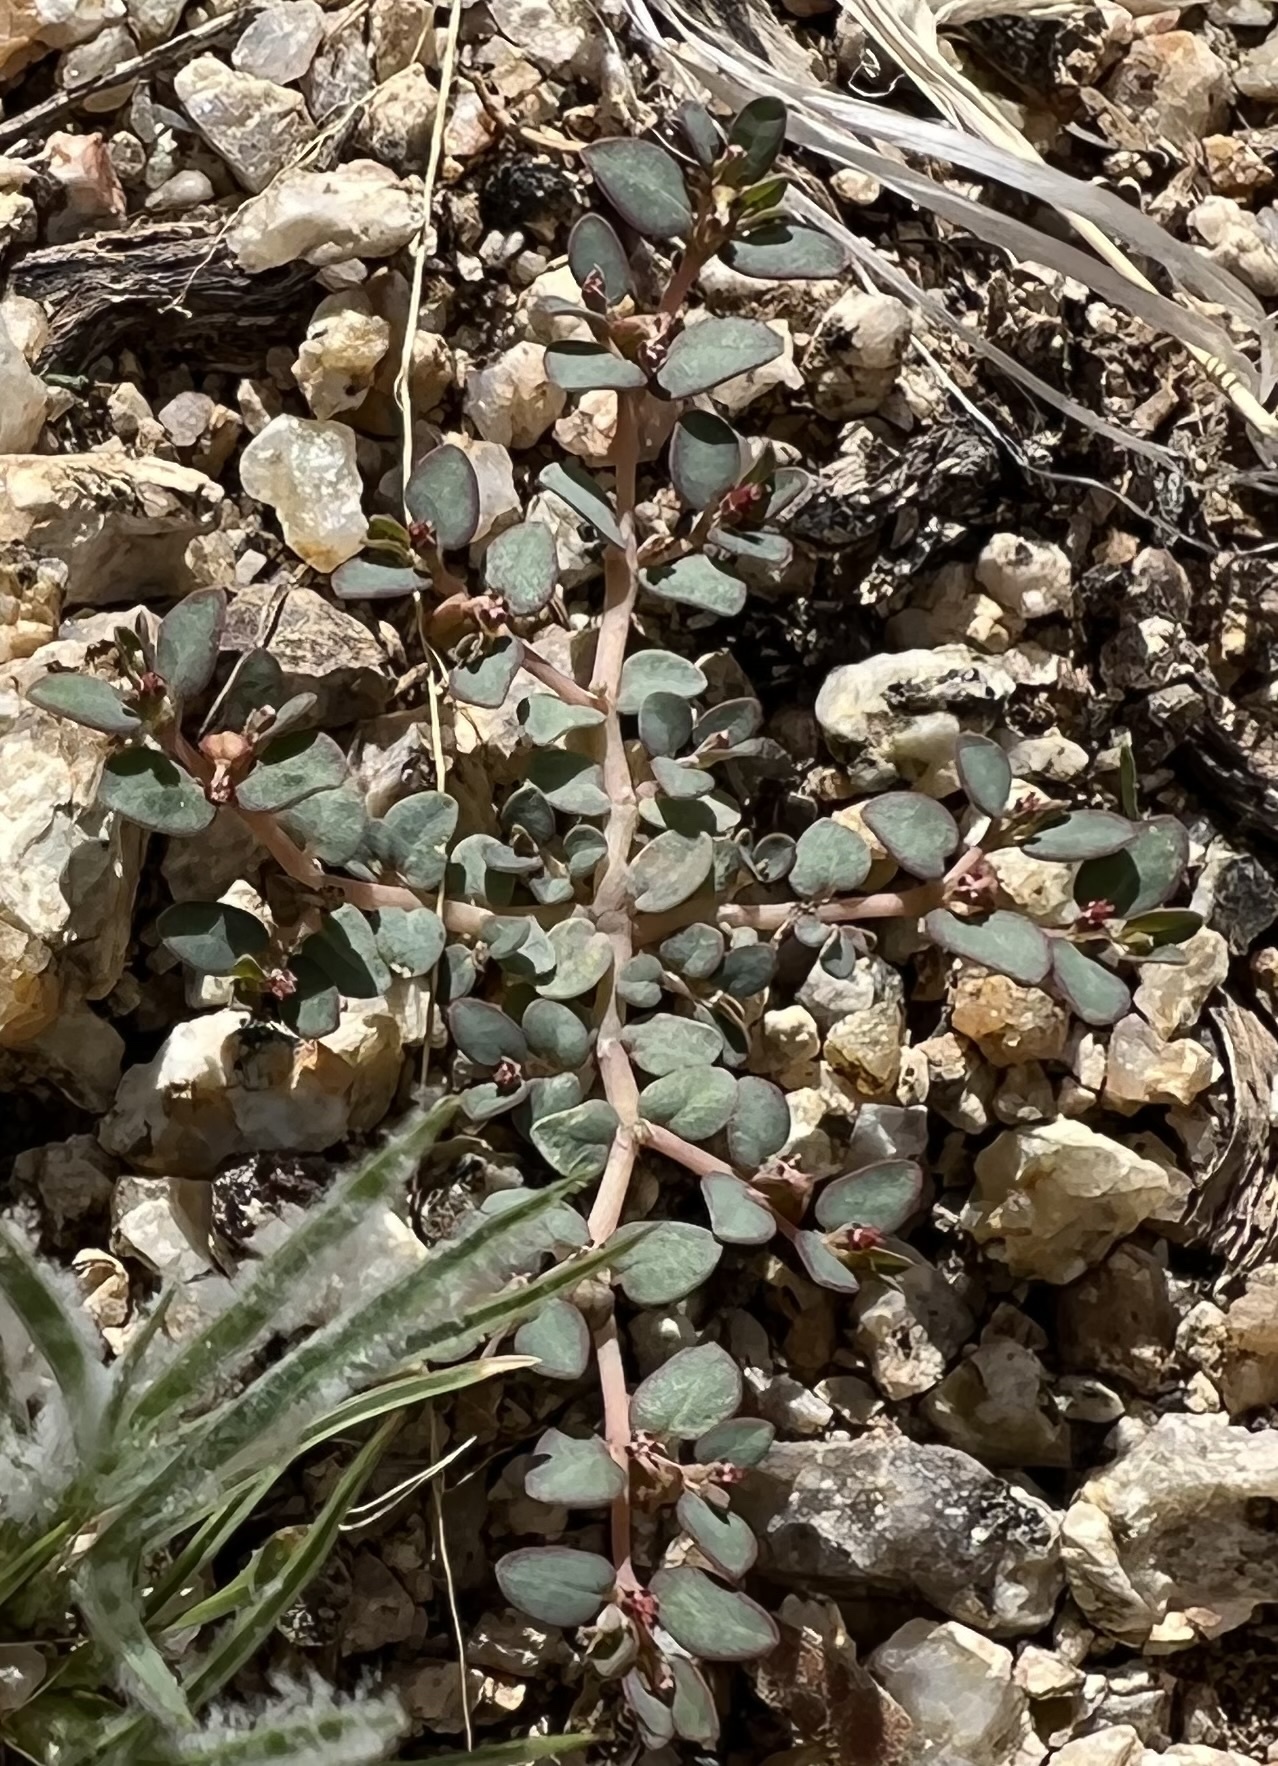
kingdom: Plantae
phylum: Tracheophyta
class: Magnoliopsida
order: Malpighiales
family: Euphorbiaceae
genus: Euphorbia
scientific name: Euphorbia micromera
